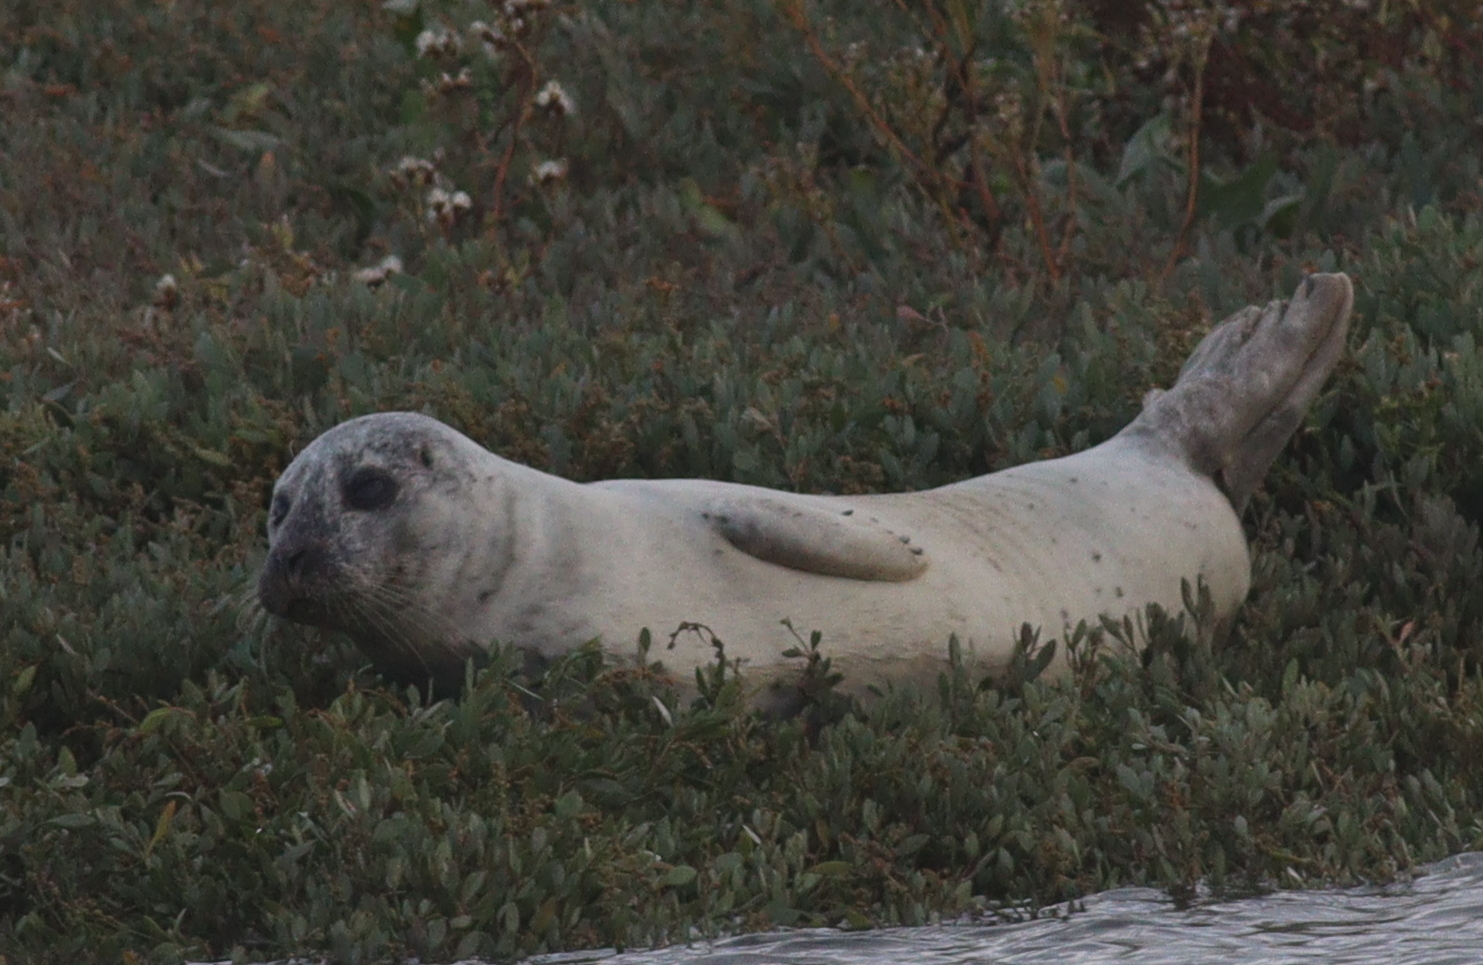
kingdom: Animalia
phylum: Chordata
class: Mammalia
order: Carnivora
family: Phocidae
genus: Phoca
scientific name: Phoca vitulina
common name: Harbor seal
